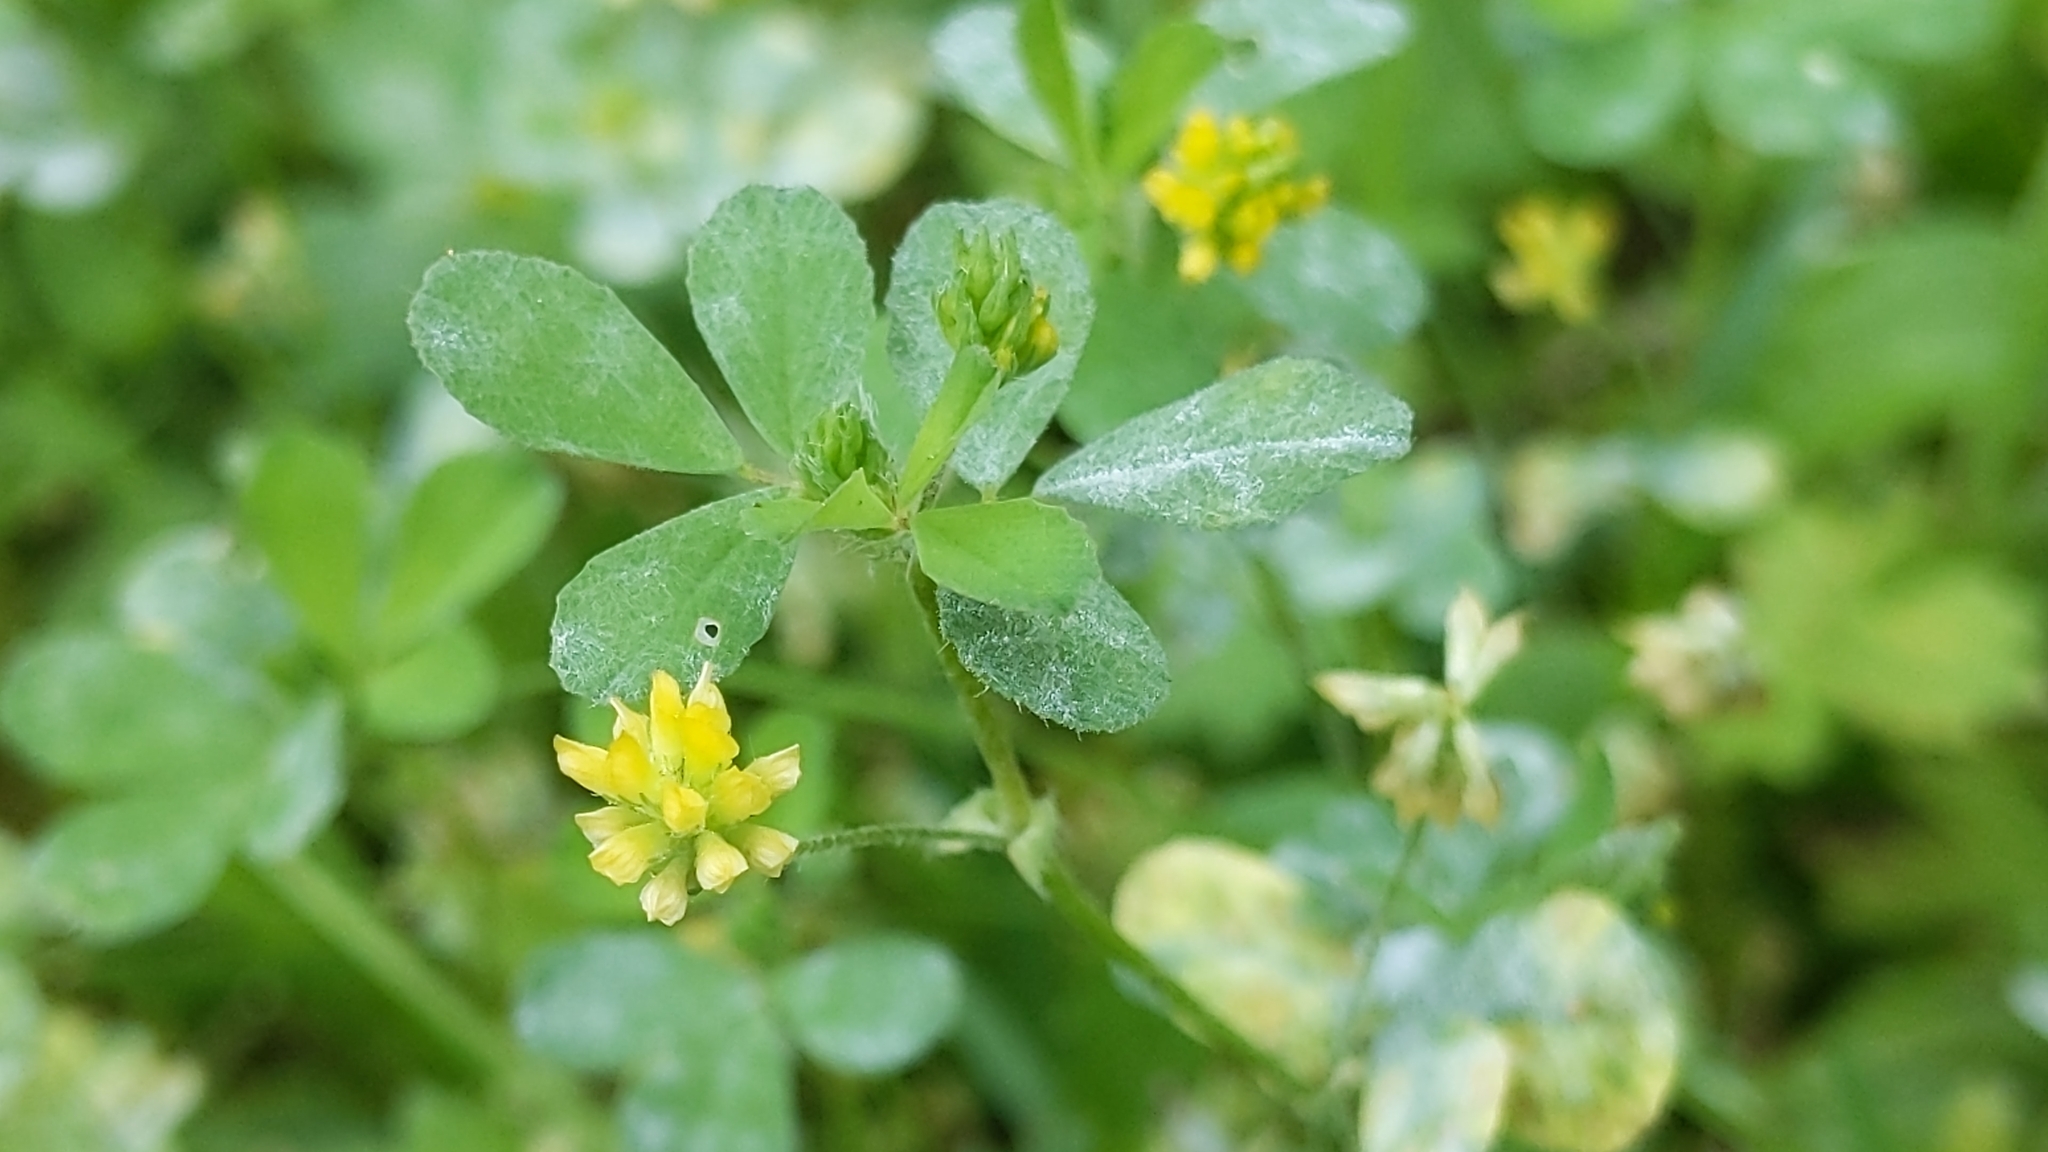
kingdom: Plantae
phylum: Tracheophyta
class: Magnoliopsida
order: Fabales
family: Fabaceae
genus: Trifolium
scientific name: Trifolium dubium
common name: Suckling clover
